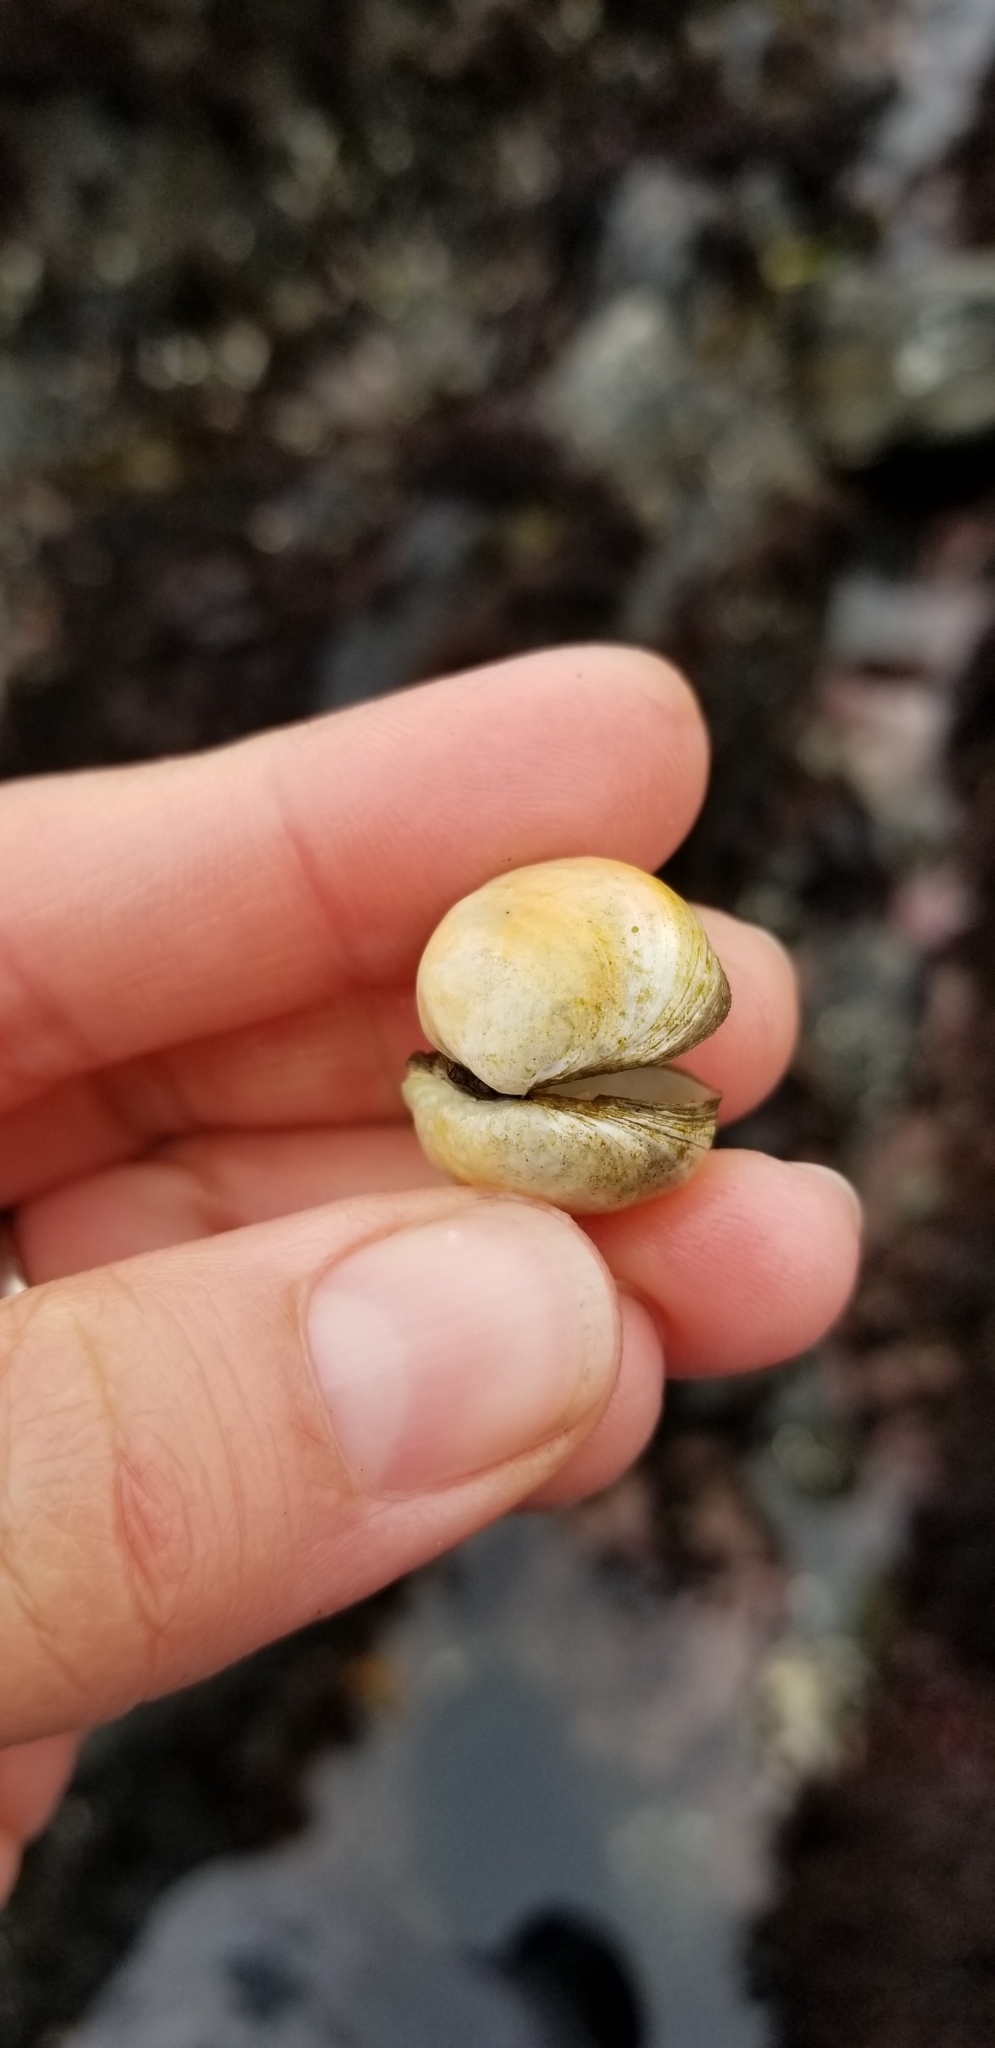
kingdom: Animalia
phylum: Mollusca
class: Bivalvia
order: Venerida
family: Veneridae
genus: Petricola
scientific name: Petricola carditoides
